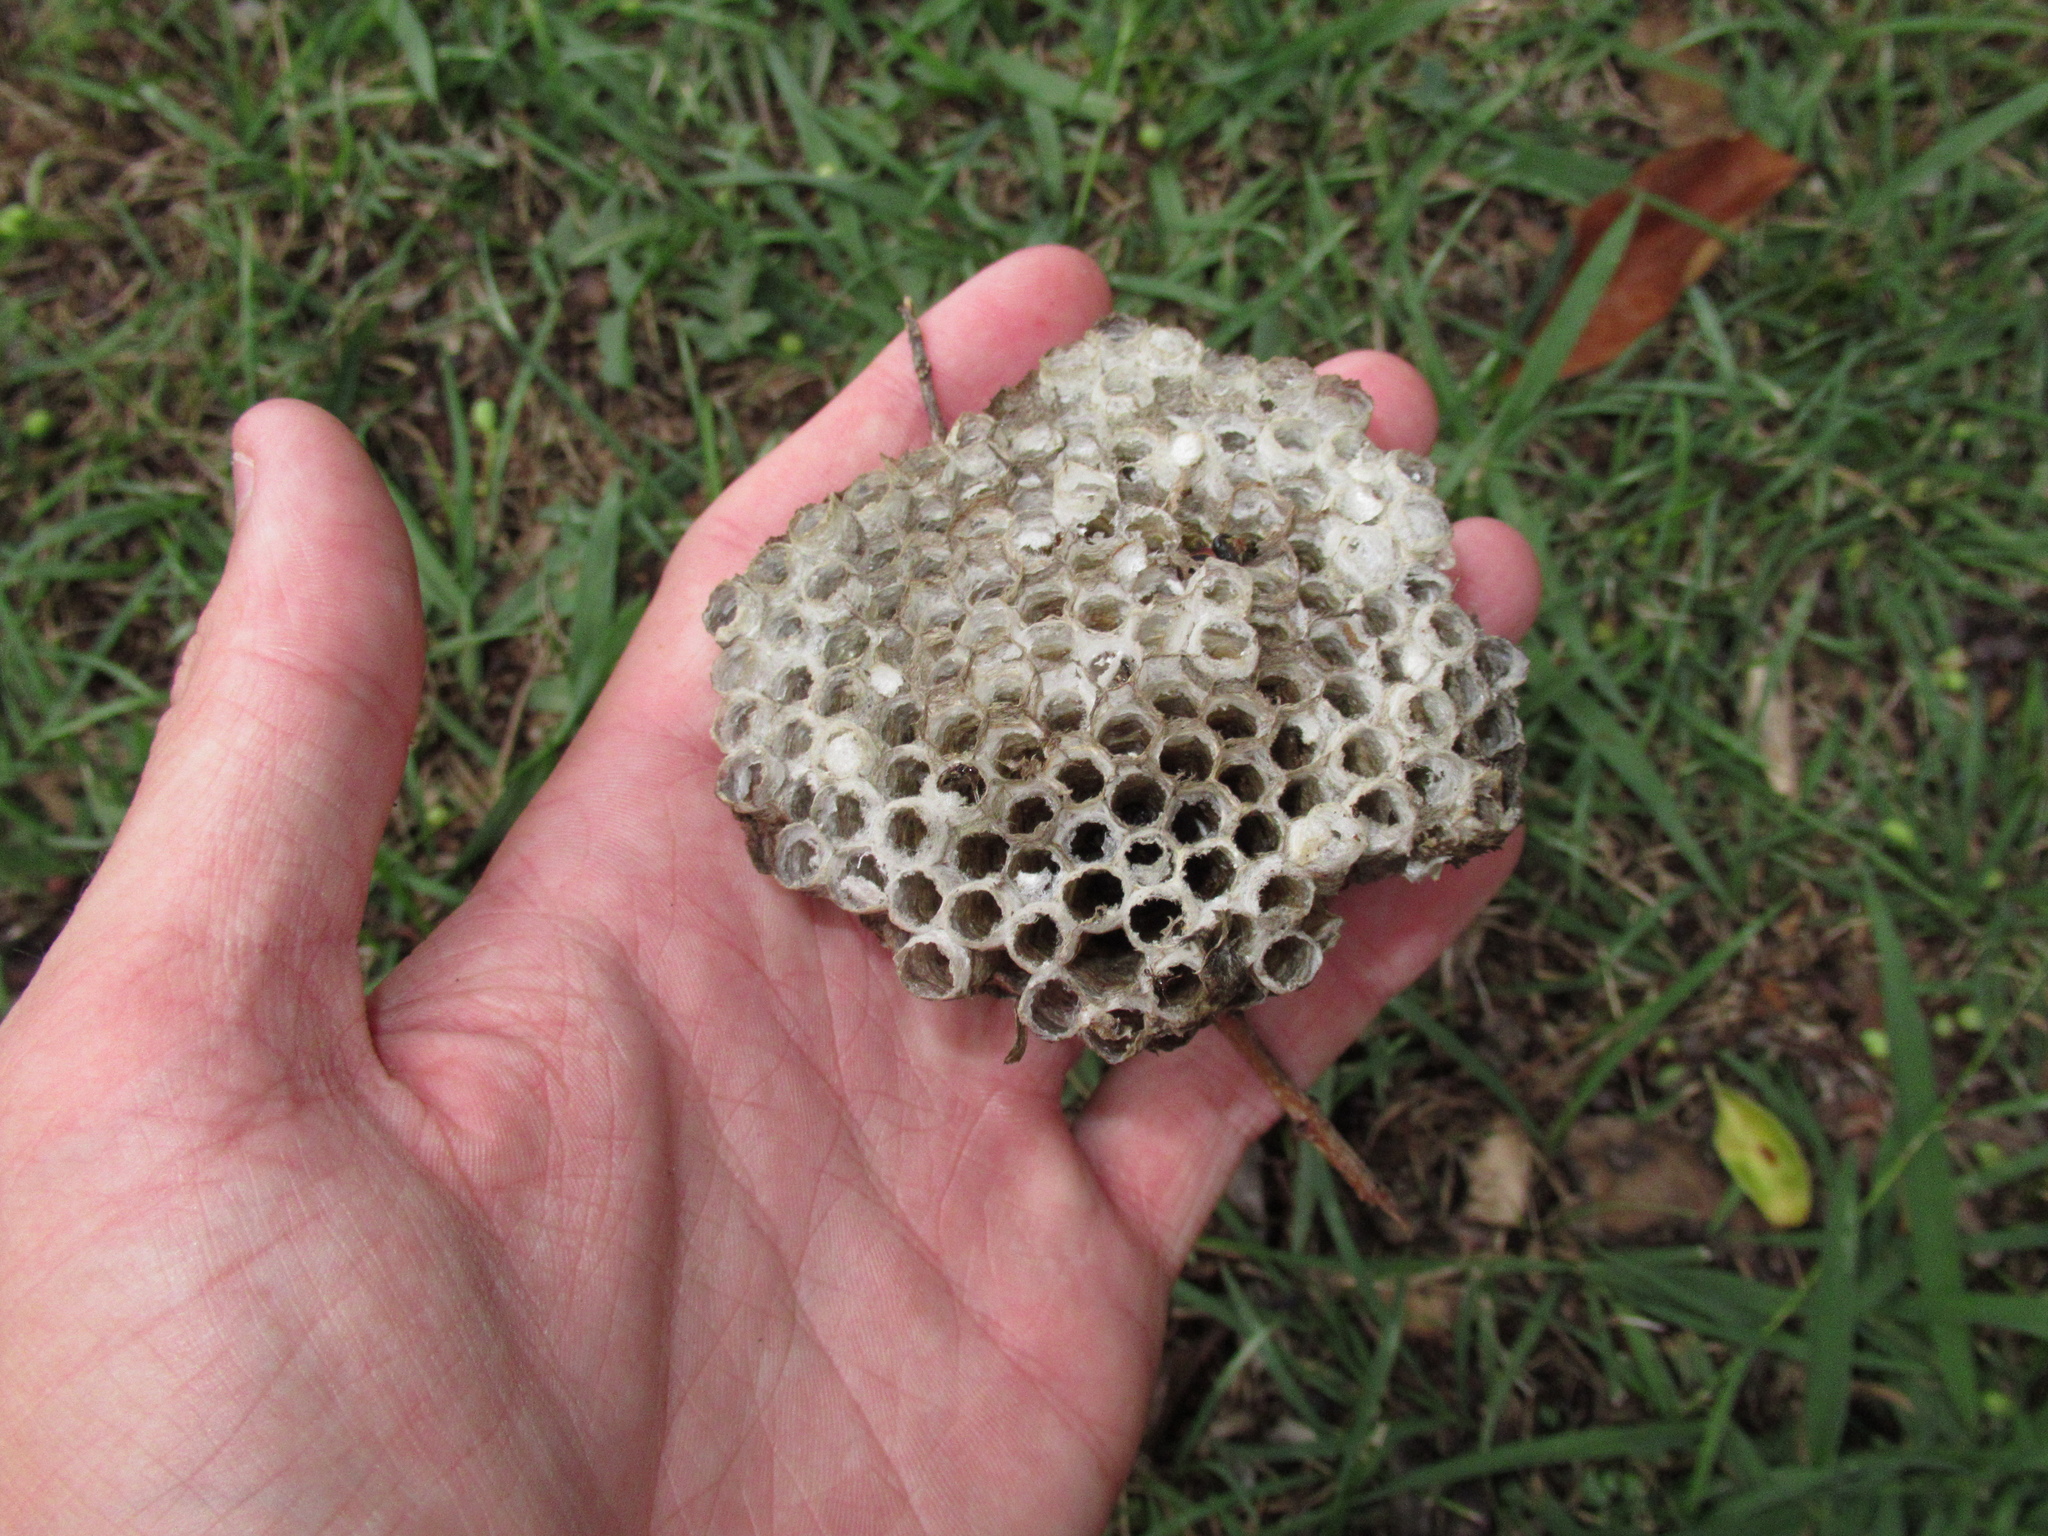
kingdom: Animalia
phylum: Arthropoda
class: Insecta
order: Hymenoptera
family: Eumenidae
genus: Polistes
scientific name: Polistes humilis
